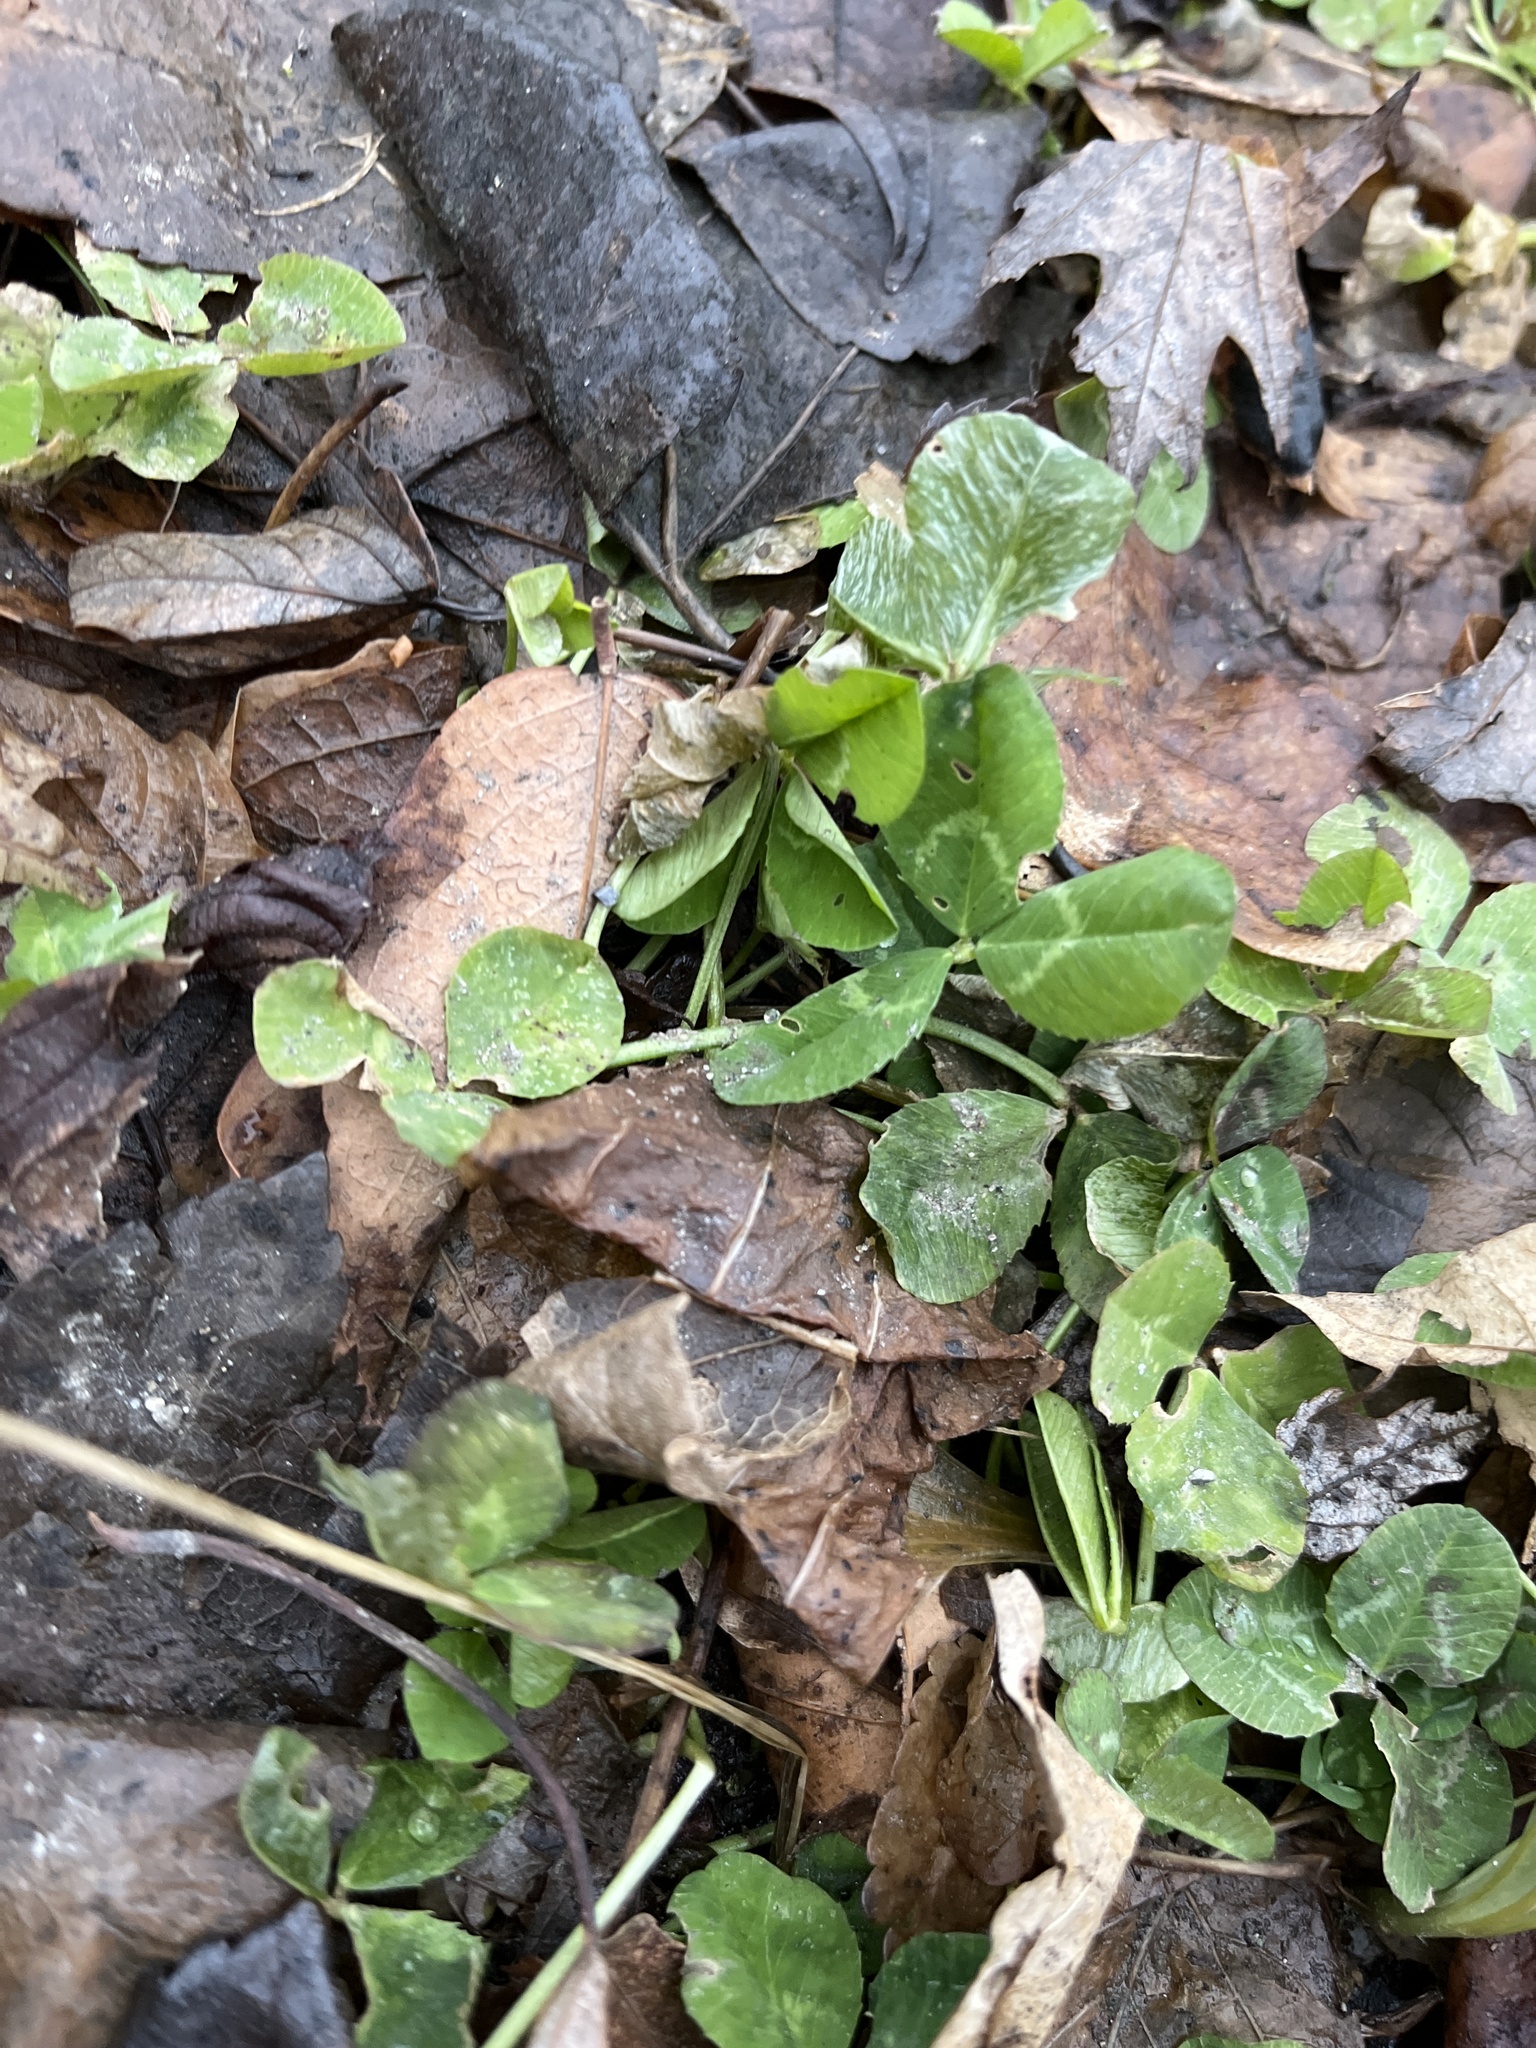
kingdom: Plantae
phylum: Tracheophyta
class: Magnoliopsida
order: Fabales
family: Fabaceae
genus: Trifolium
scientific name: Trifolium repens
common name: White clover
